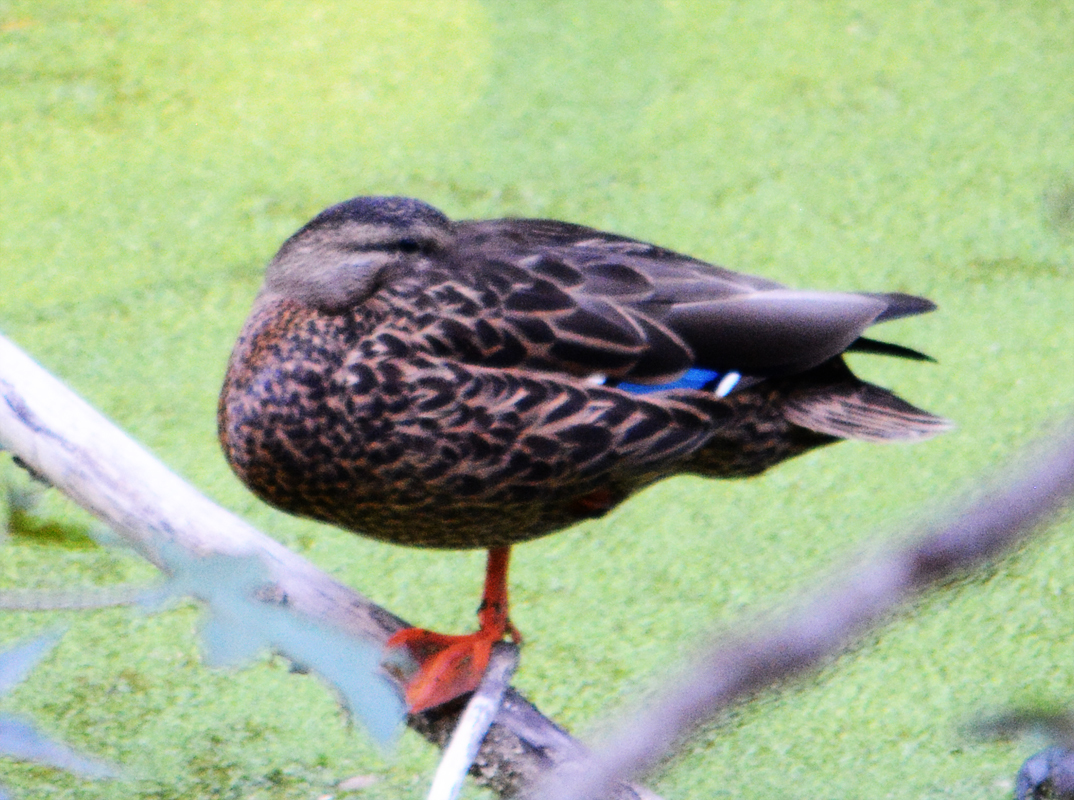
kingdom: Animalia
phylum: Chordata
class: Aves
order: Anseriformes
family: Anatidae
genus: Anas
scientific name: Anas diazi
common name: Mexican duck
